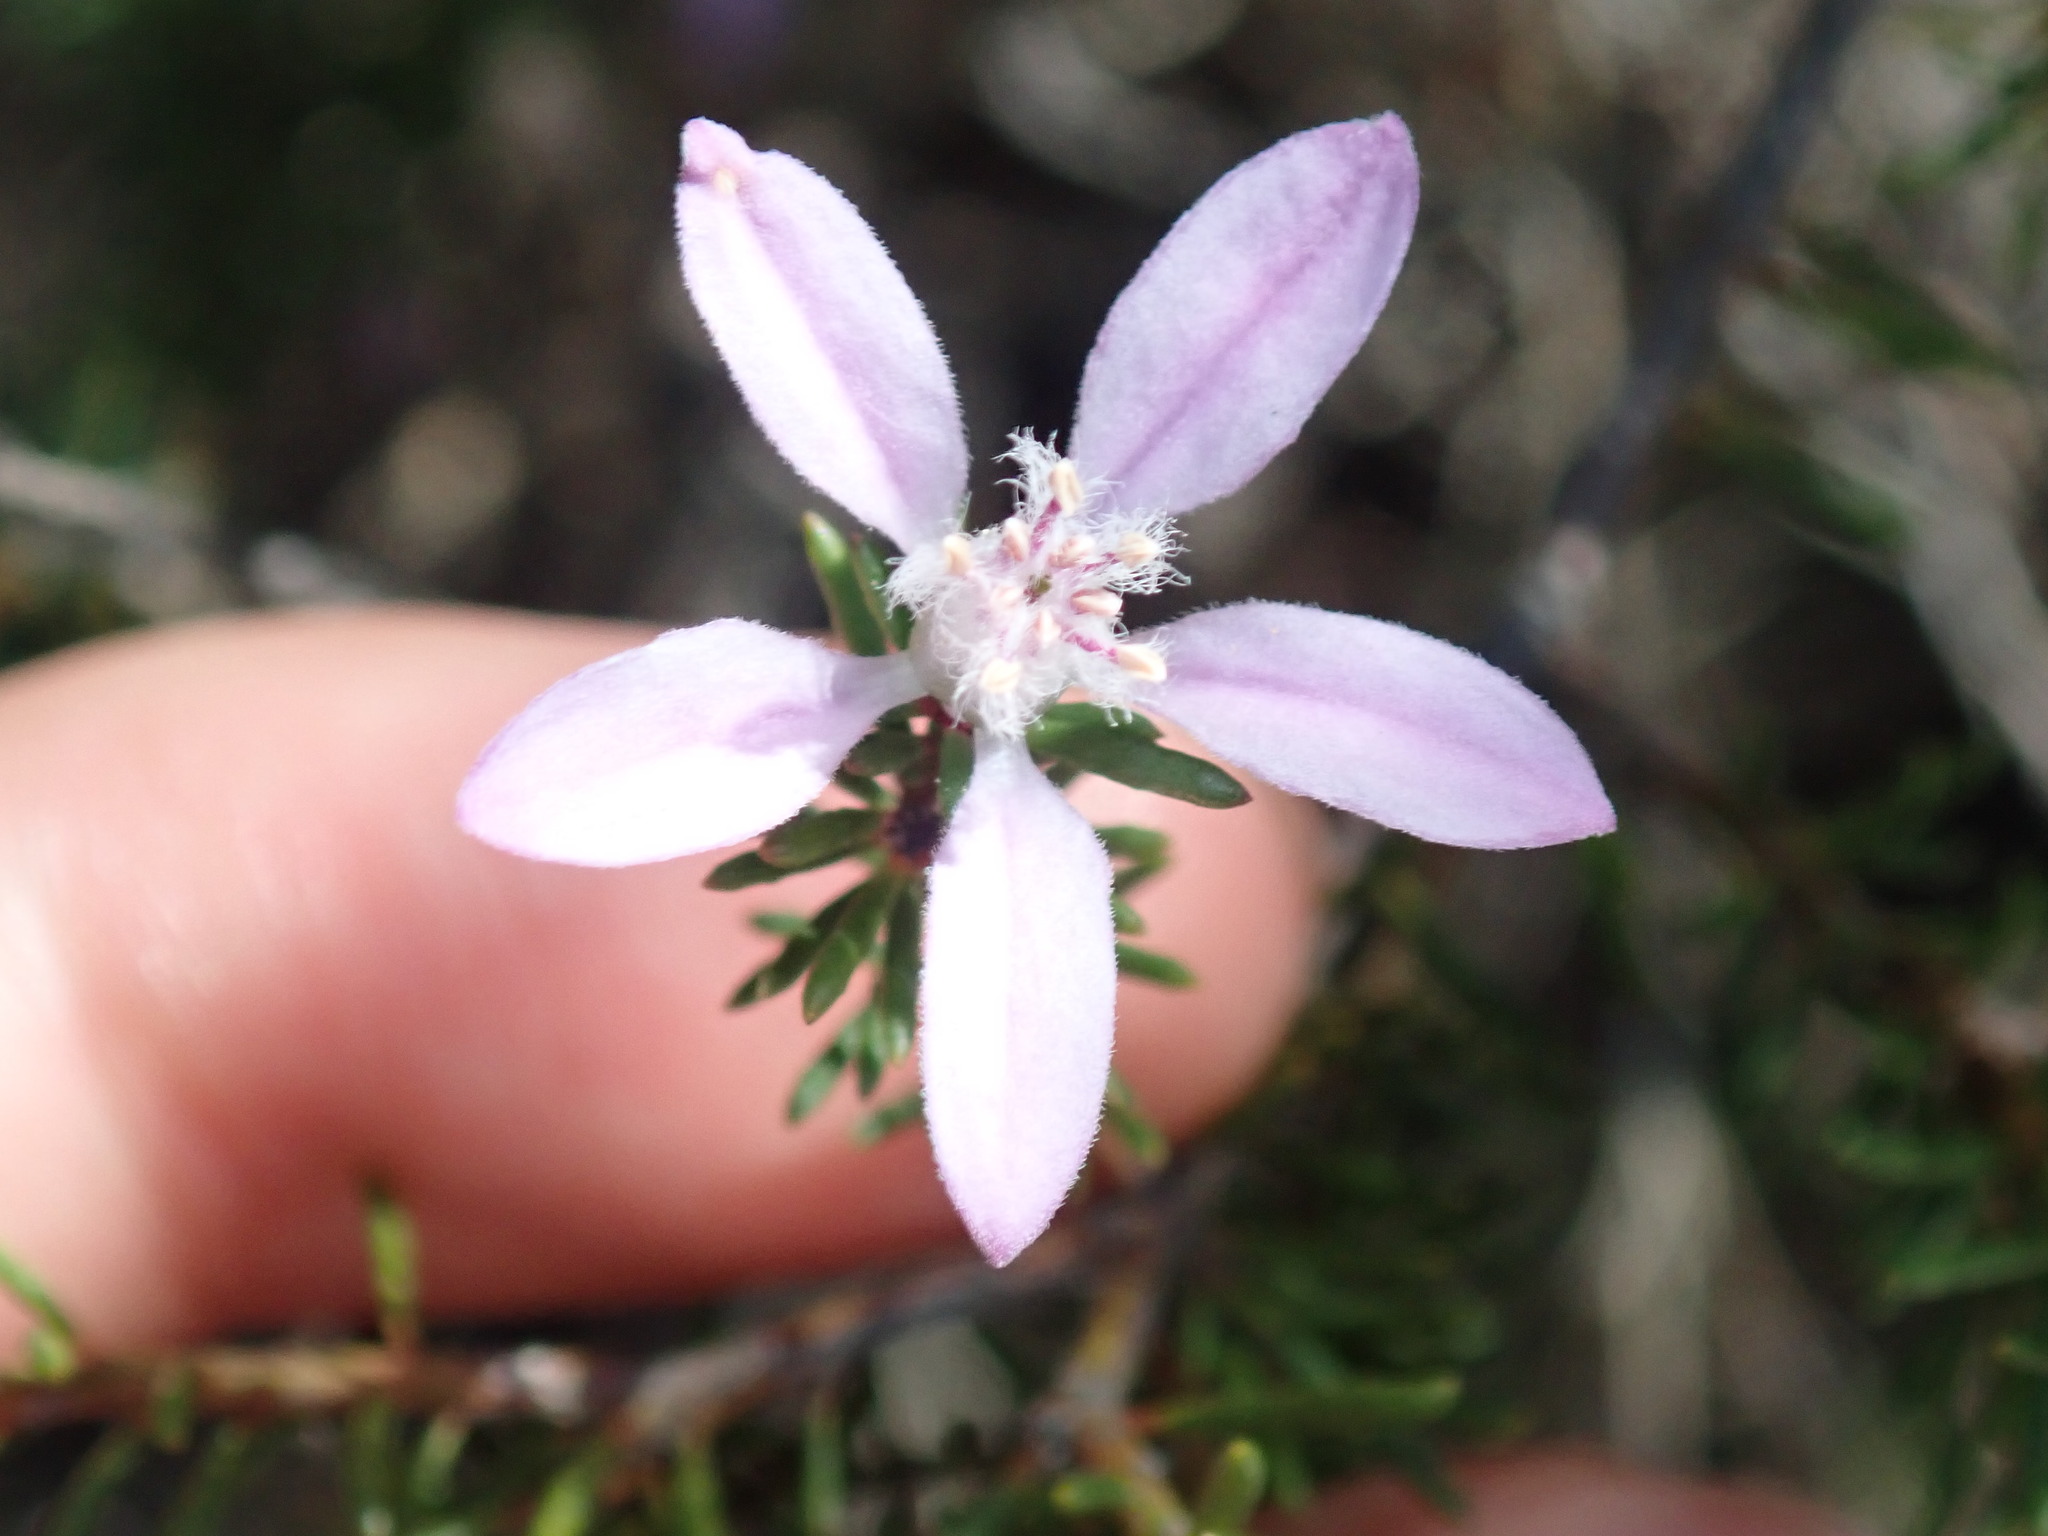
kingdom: Plantae
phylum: Tracheophyta
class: Magnoliopsida
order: Sapindales
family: Rutaceae
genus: Philotheca
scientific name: Philotheca salsolifolia
